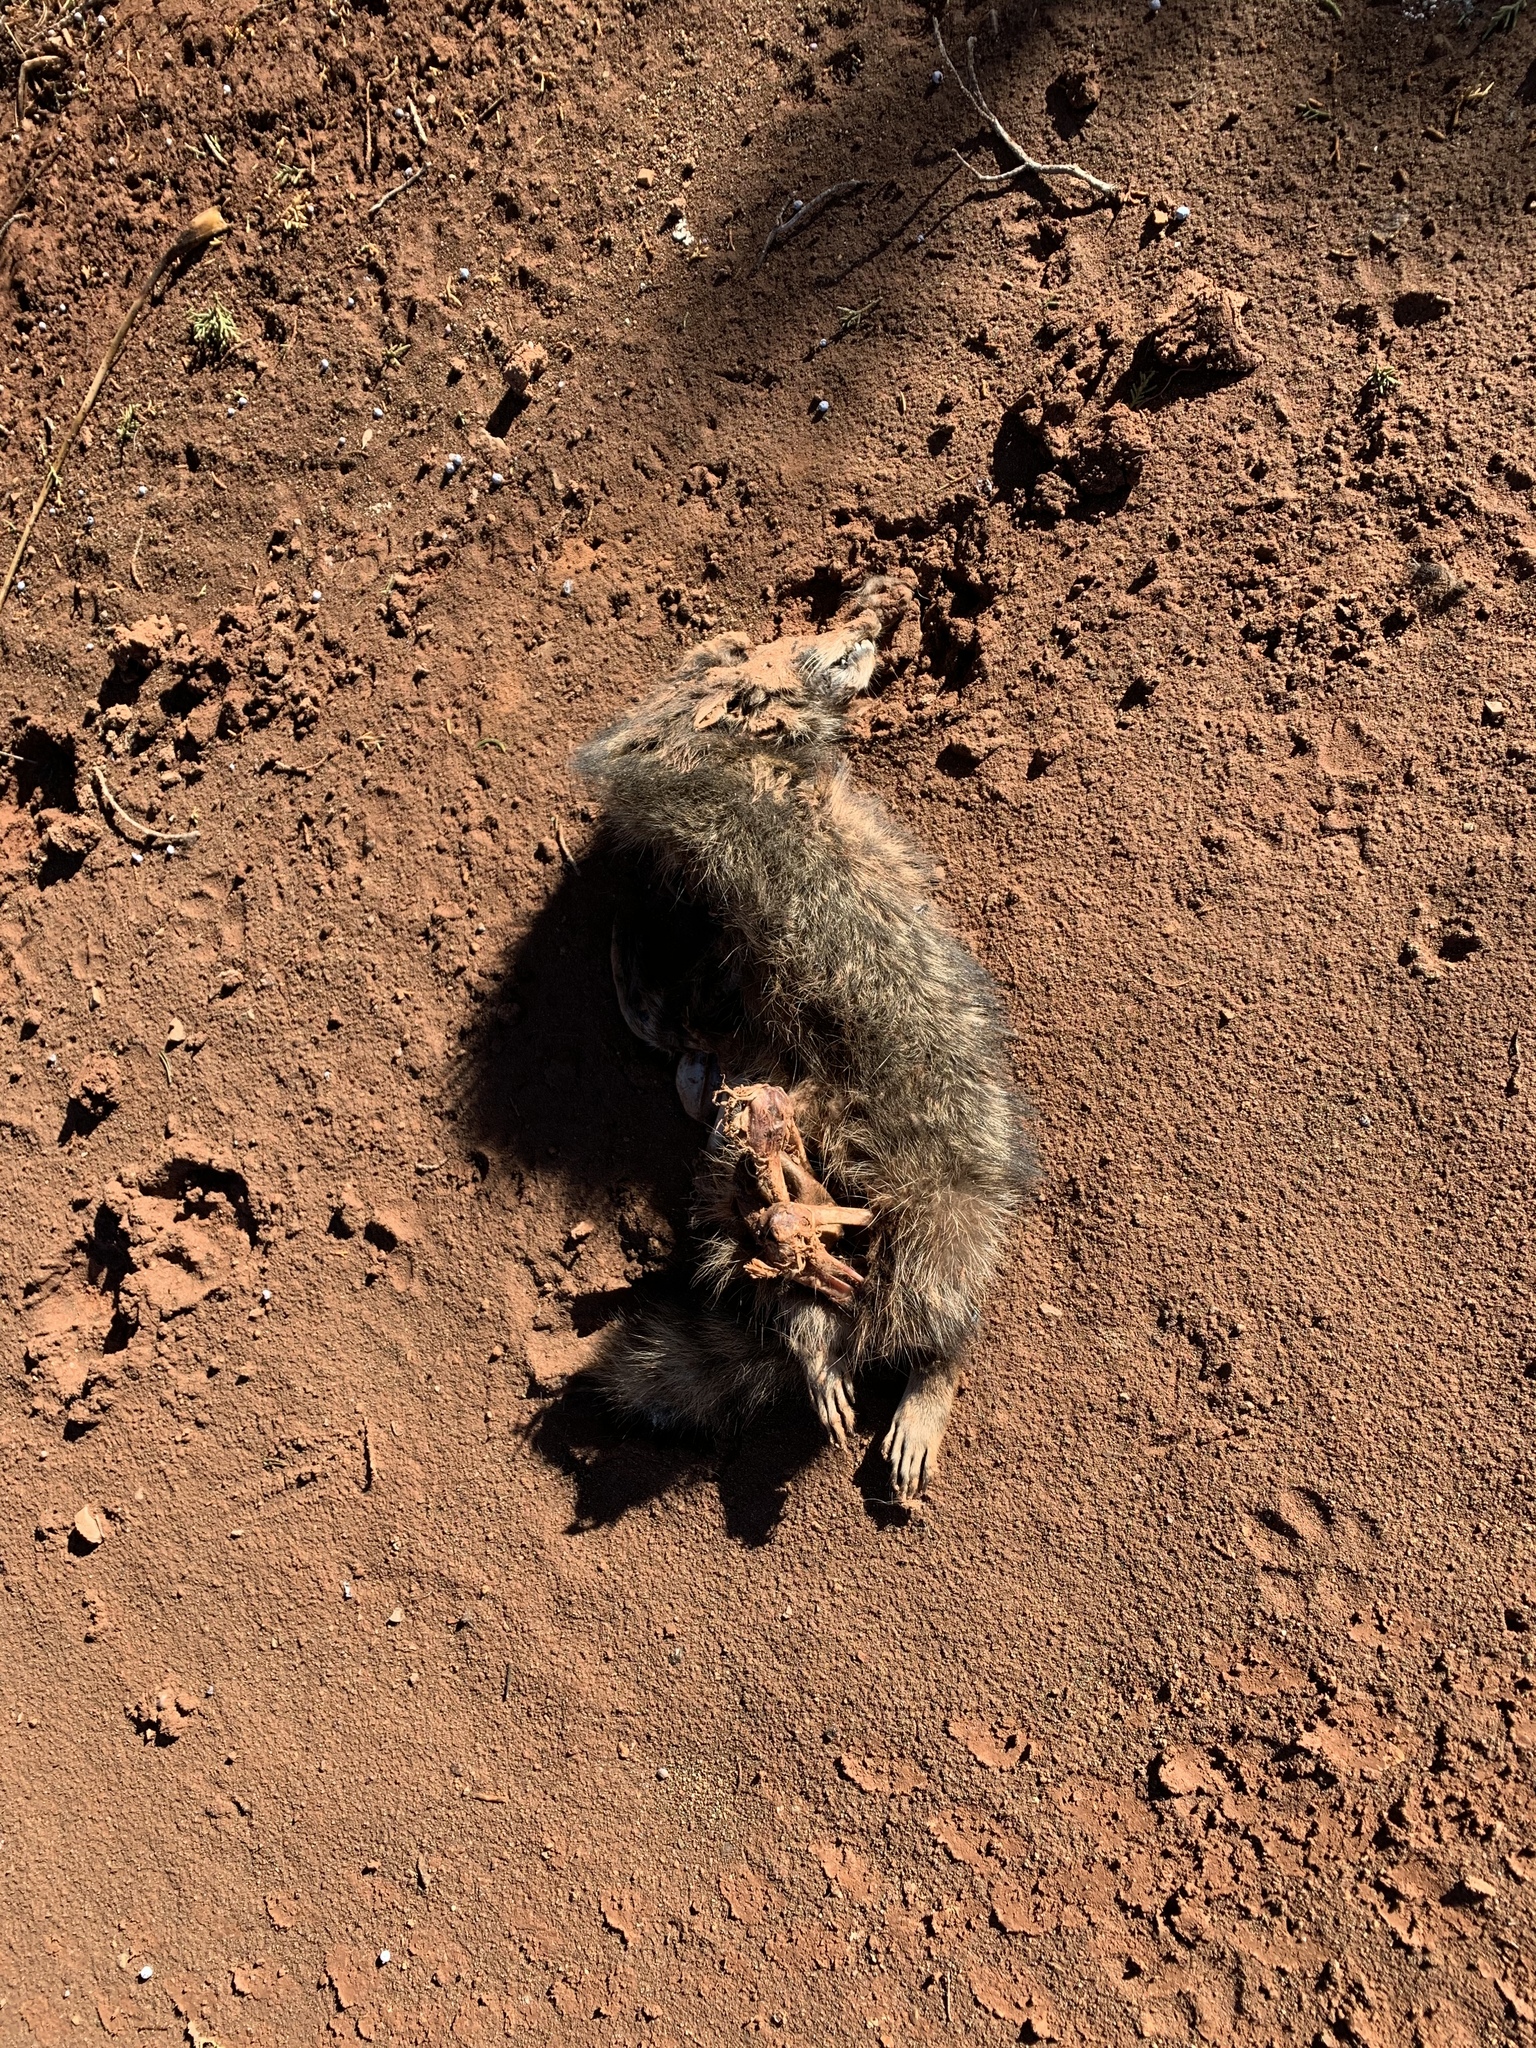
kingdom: Animalia
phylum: Chordata
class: Mammalia
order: Carnivora
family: Procyonidae
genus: Procyon
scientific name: Procyon lotor
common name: Raccoon
